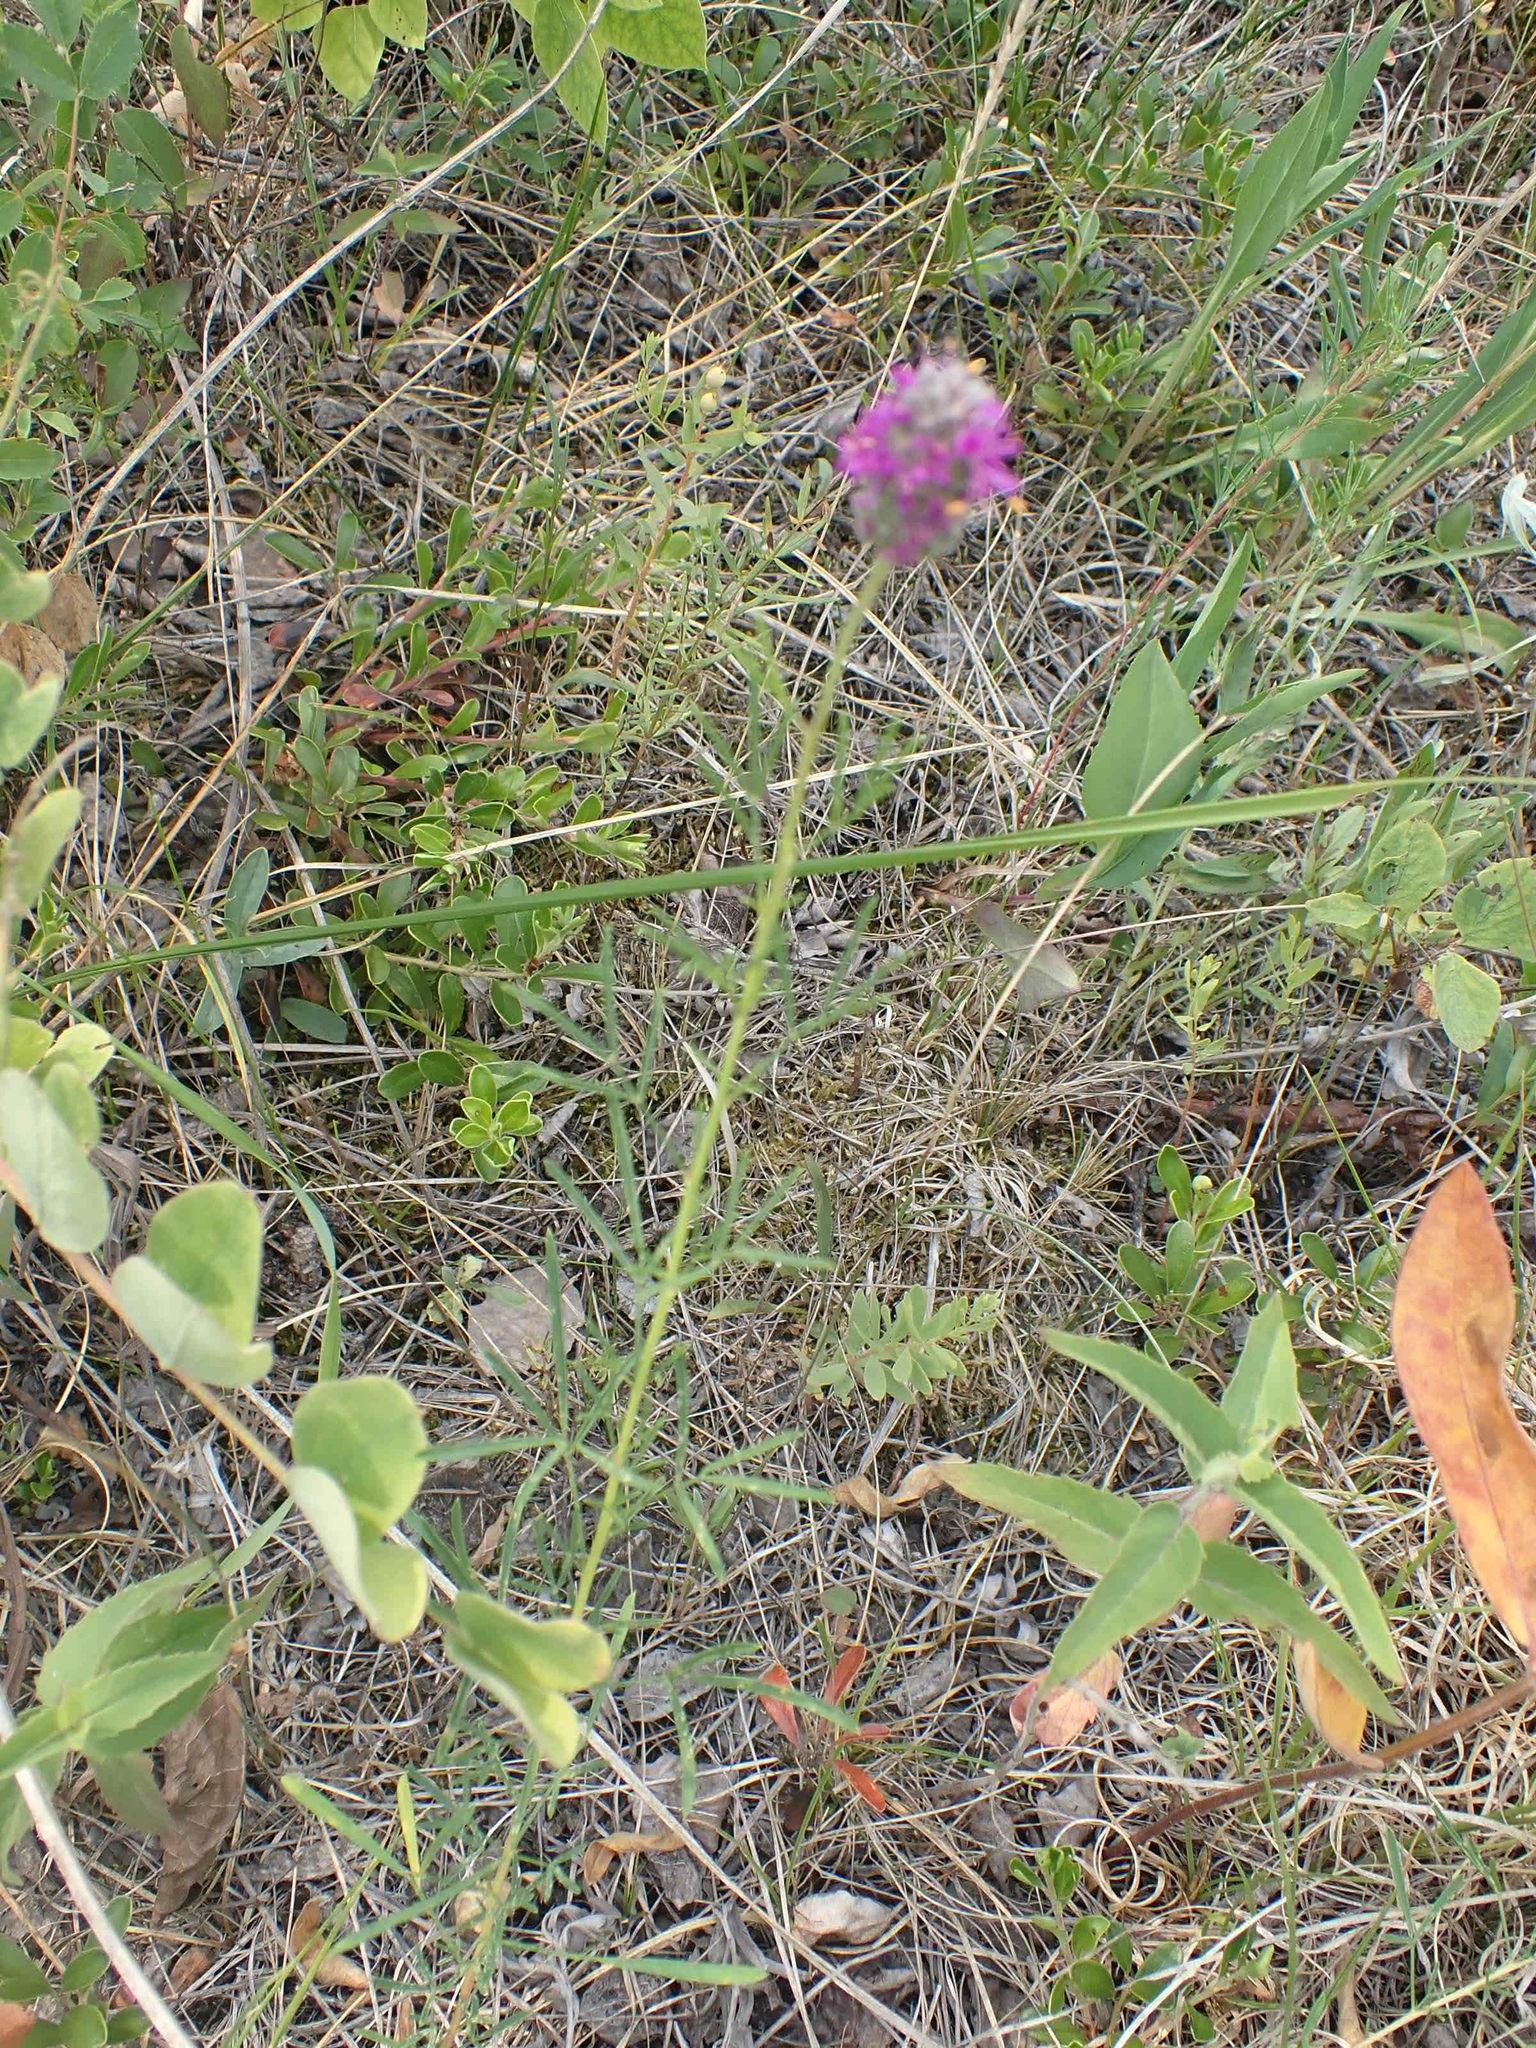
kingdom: Plantae
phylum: Tracheophyta
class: Magnoliopsida
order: Fabales
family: Fabaceae
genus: Dalea
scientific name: Dalea purpurea
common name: Purple prairie-clover
